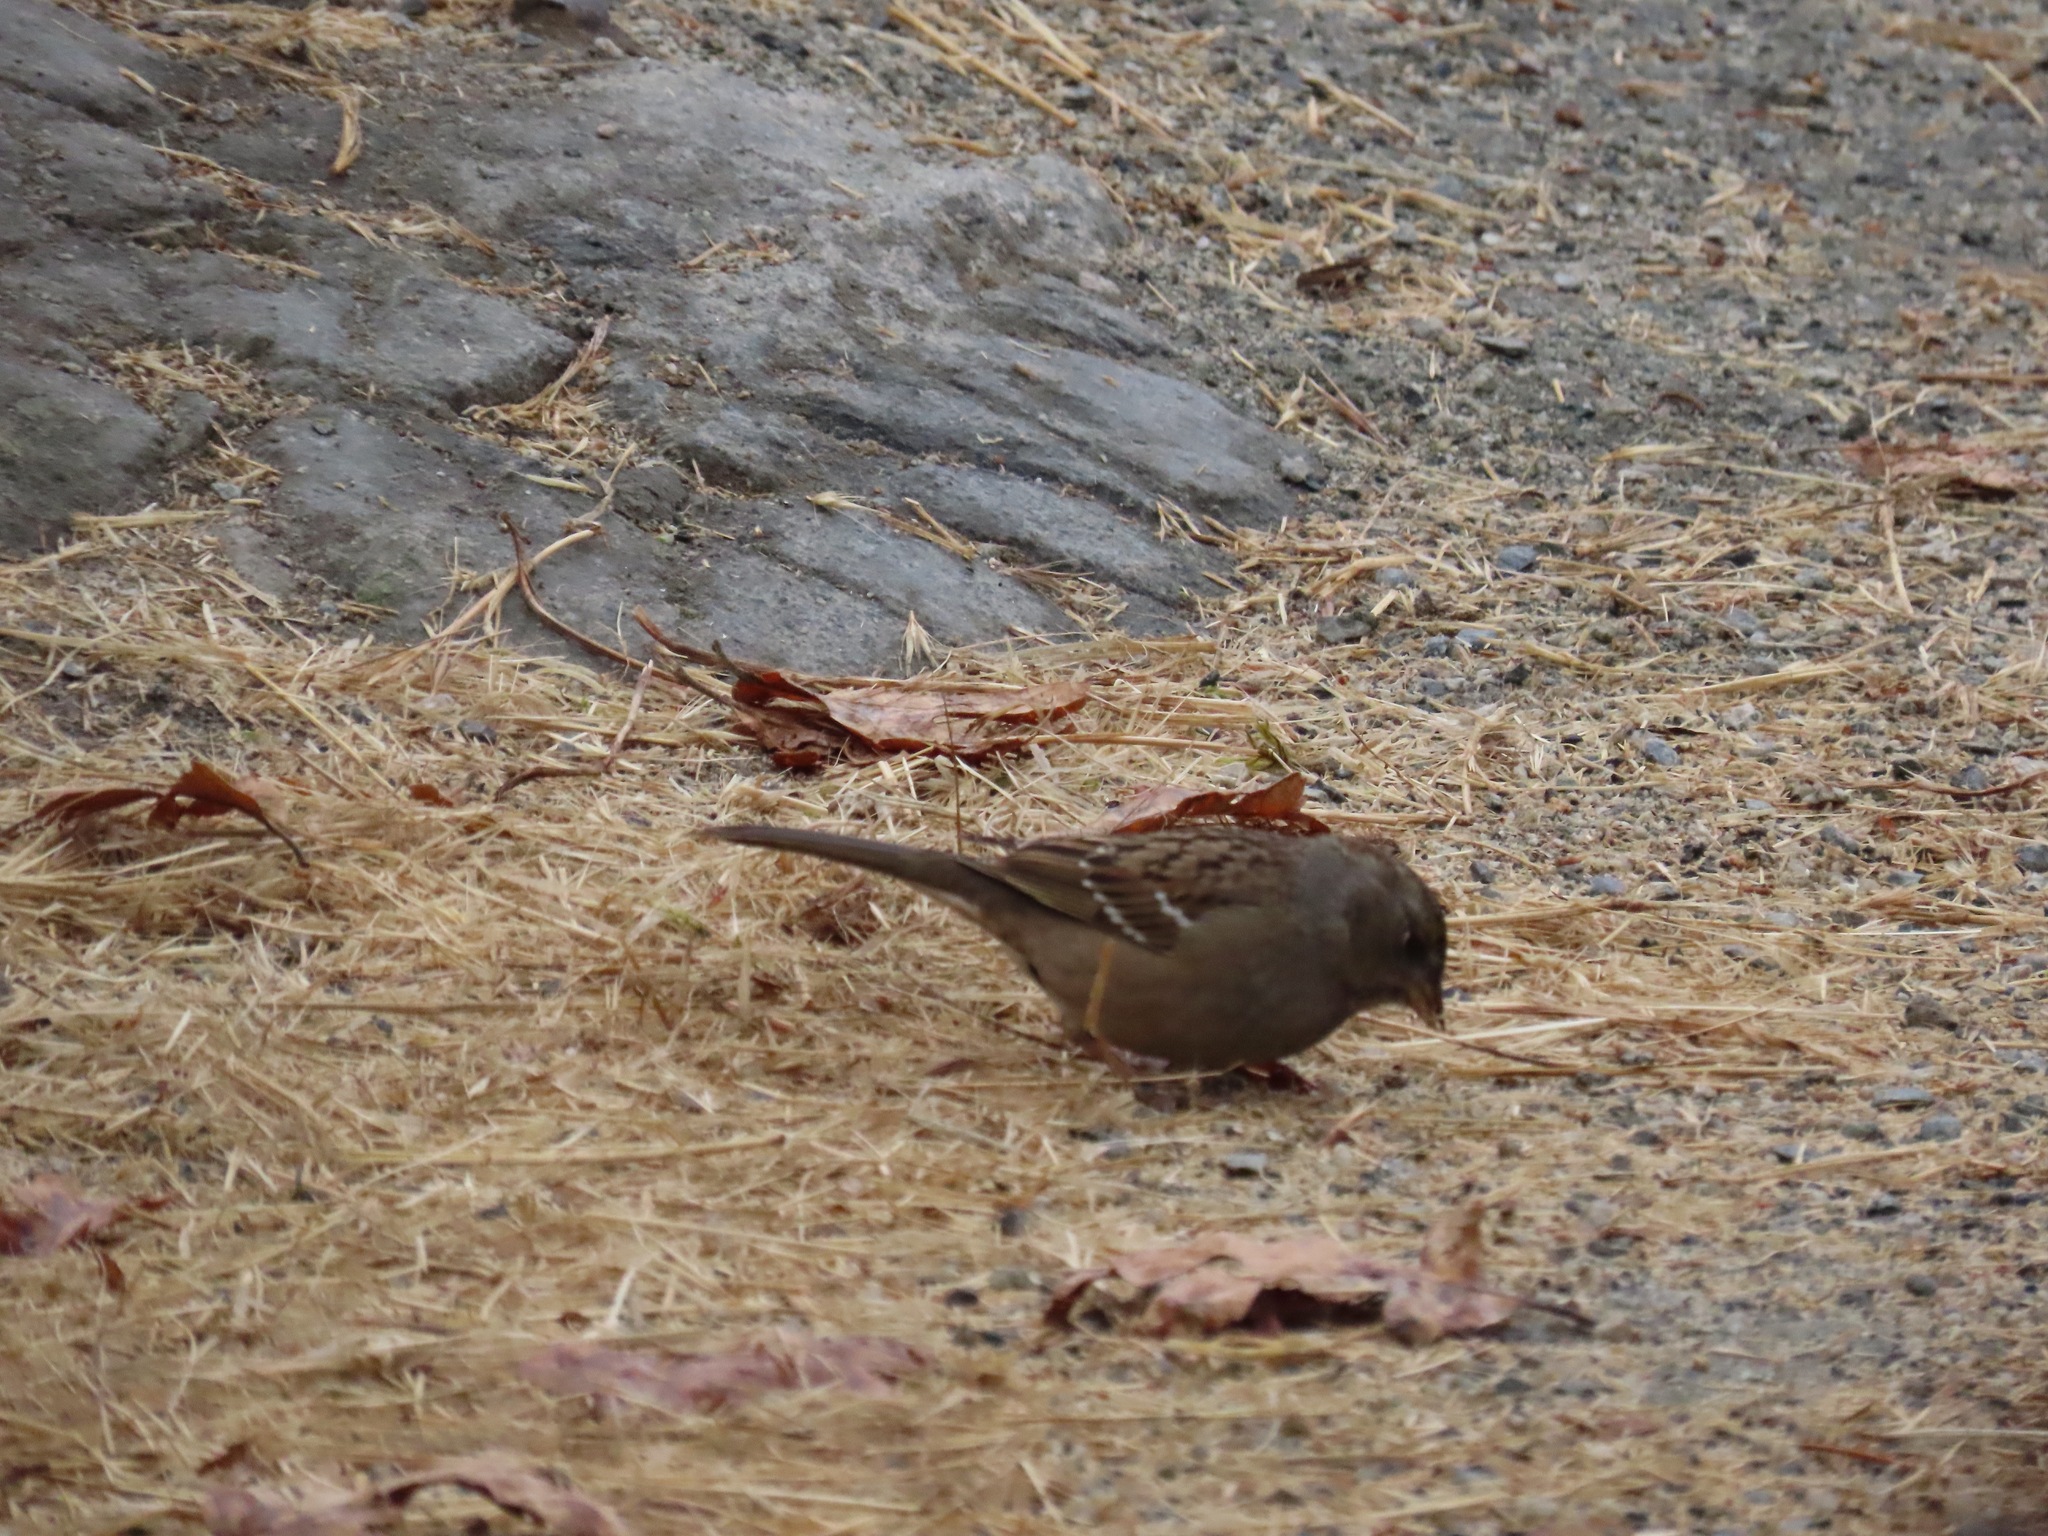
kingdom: Animalia
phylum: Chordata
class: Aves
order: Passeriformes
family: Passerellidae
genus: Zonotrichia
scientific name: Zonotrichia atricapilla
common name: Golden-crowned sparrow
